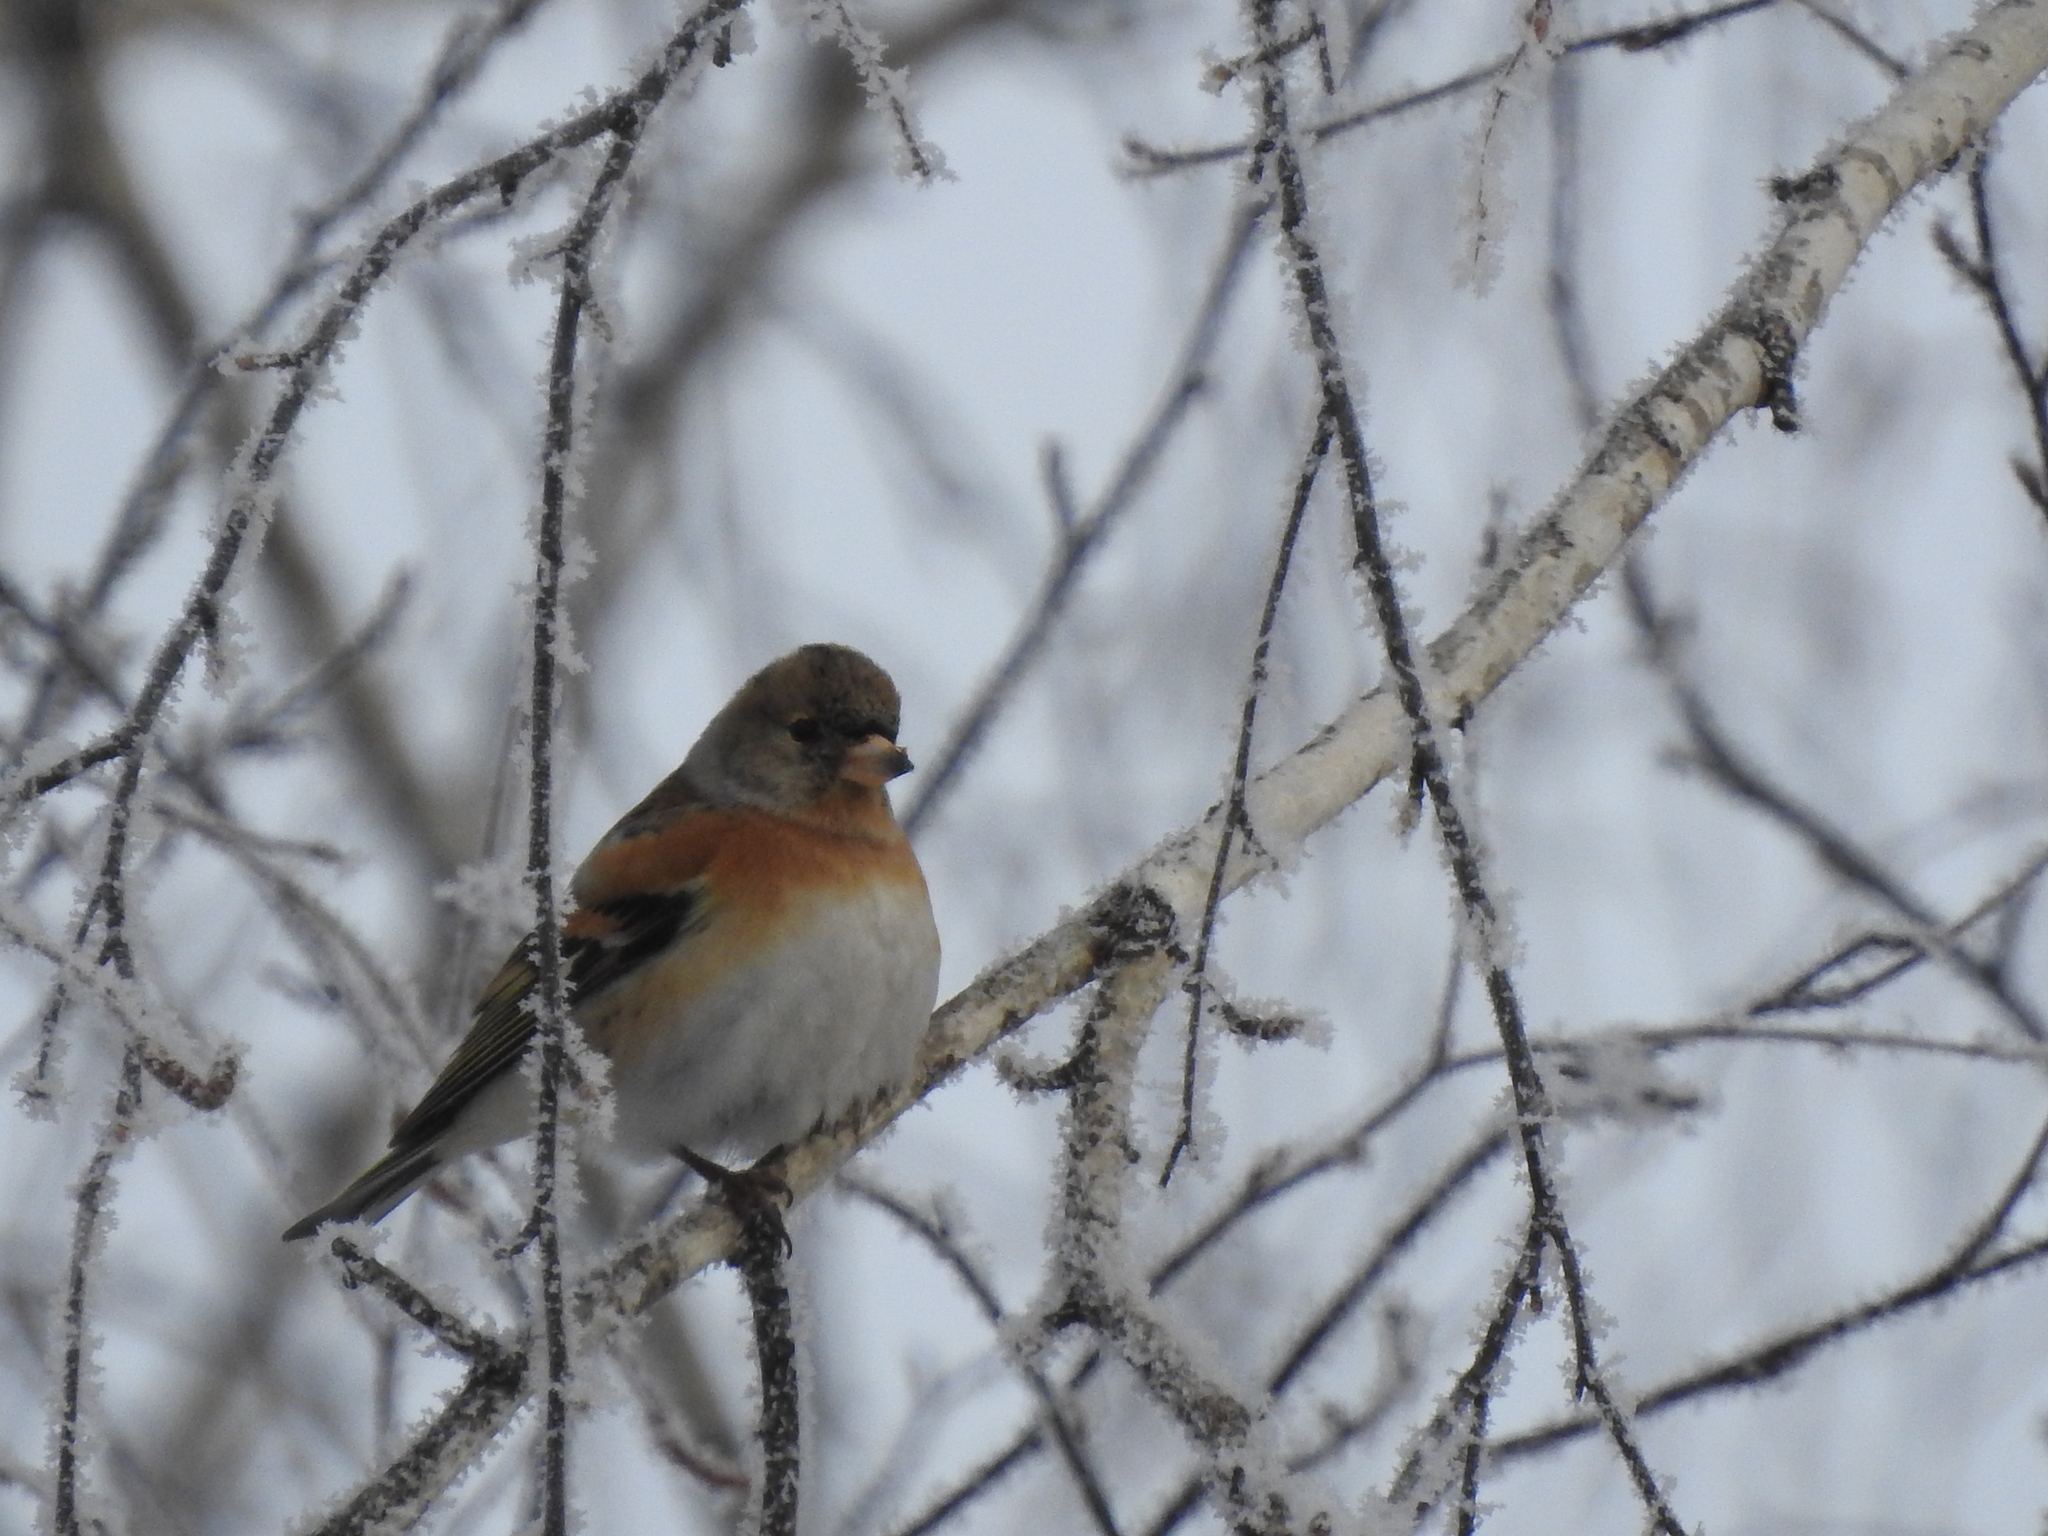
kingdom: Animalia
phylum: Chordata
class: Aves
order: Passeriformes
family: Fringillidae
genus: Fringilla
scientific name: Fringilla montifringilla
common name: Brambling
